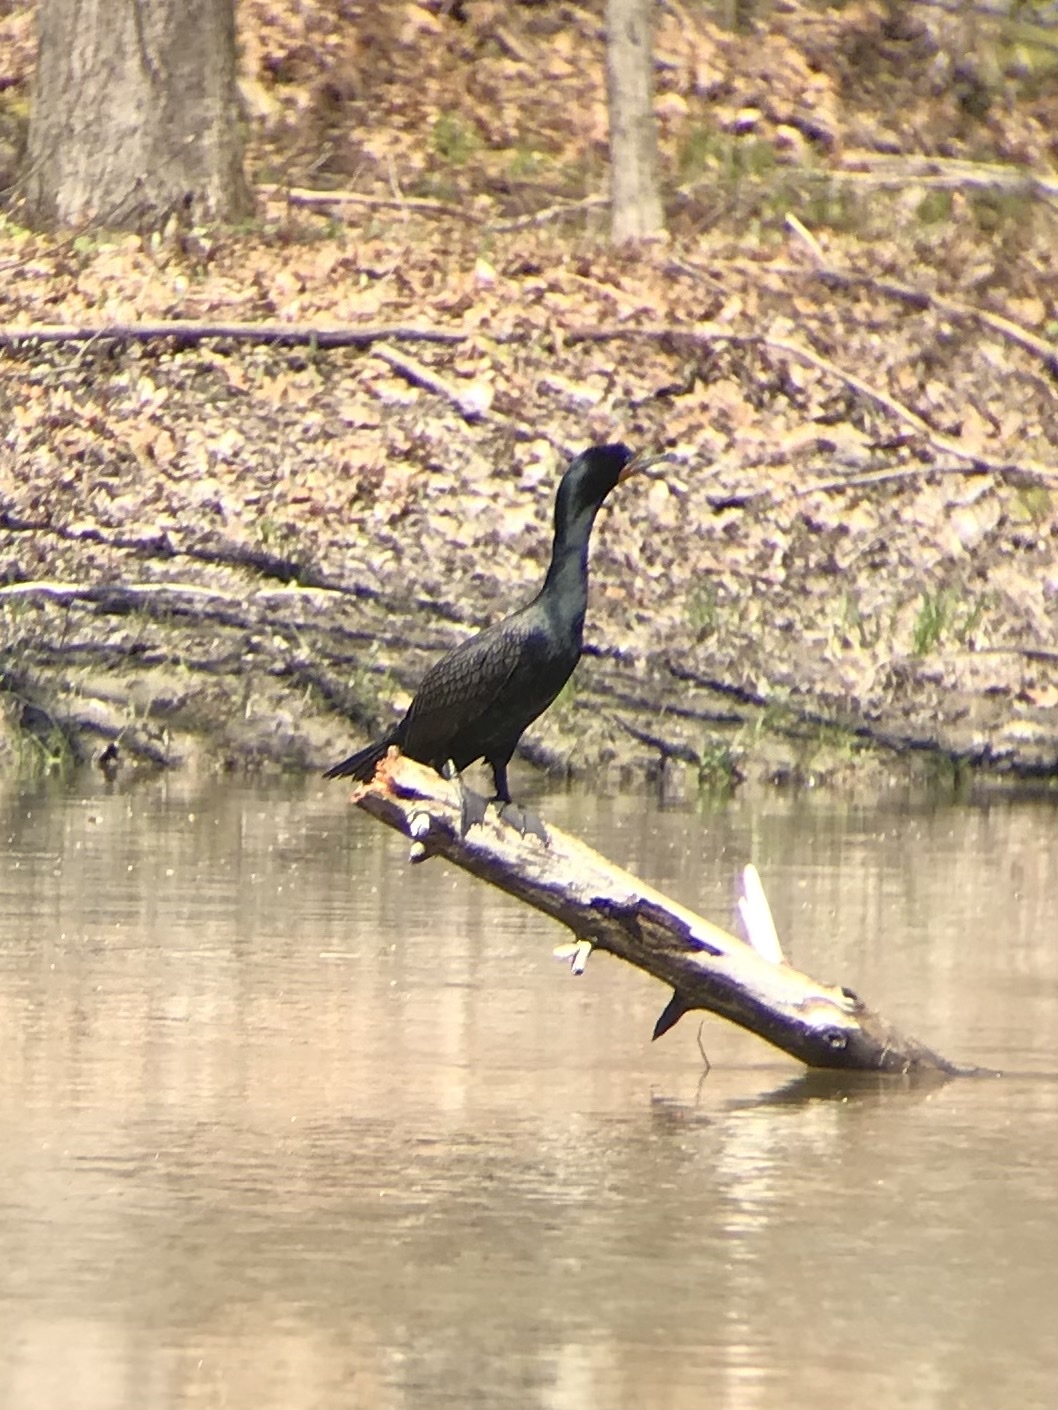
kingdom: Animalia
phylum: Chordata
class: Aves
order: Suliformes
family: Phalacrocoracidae
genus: Phalacrocorax
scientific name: Phalacrocorax auritus
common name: Double-crested cormorant
